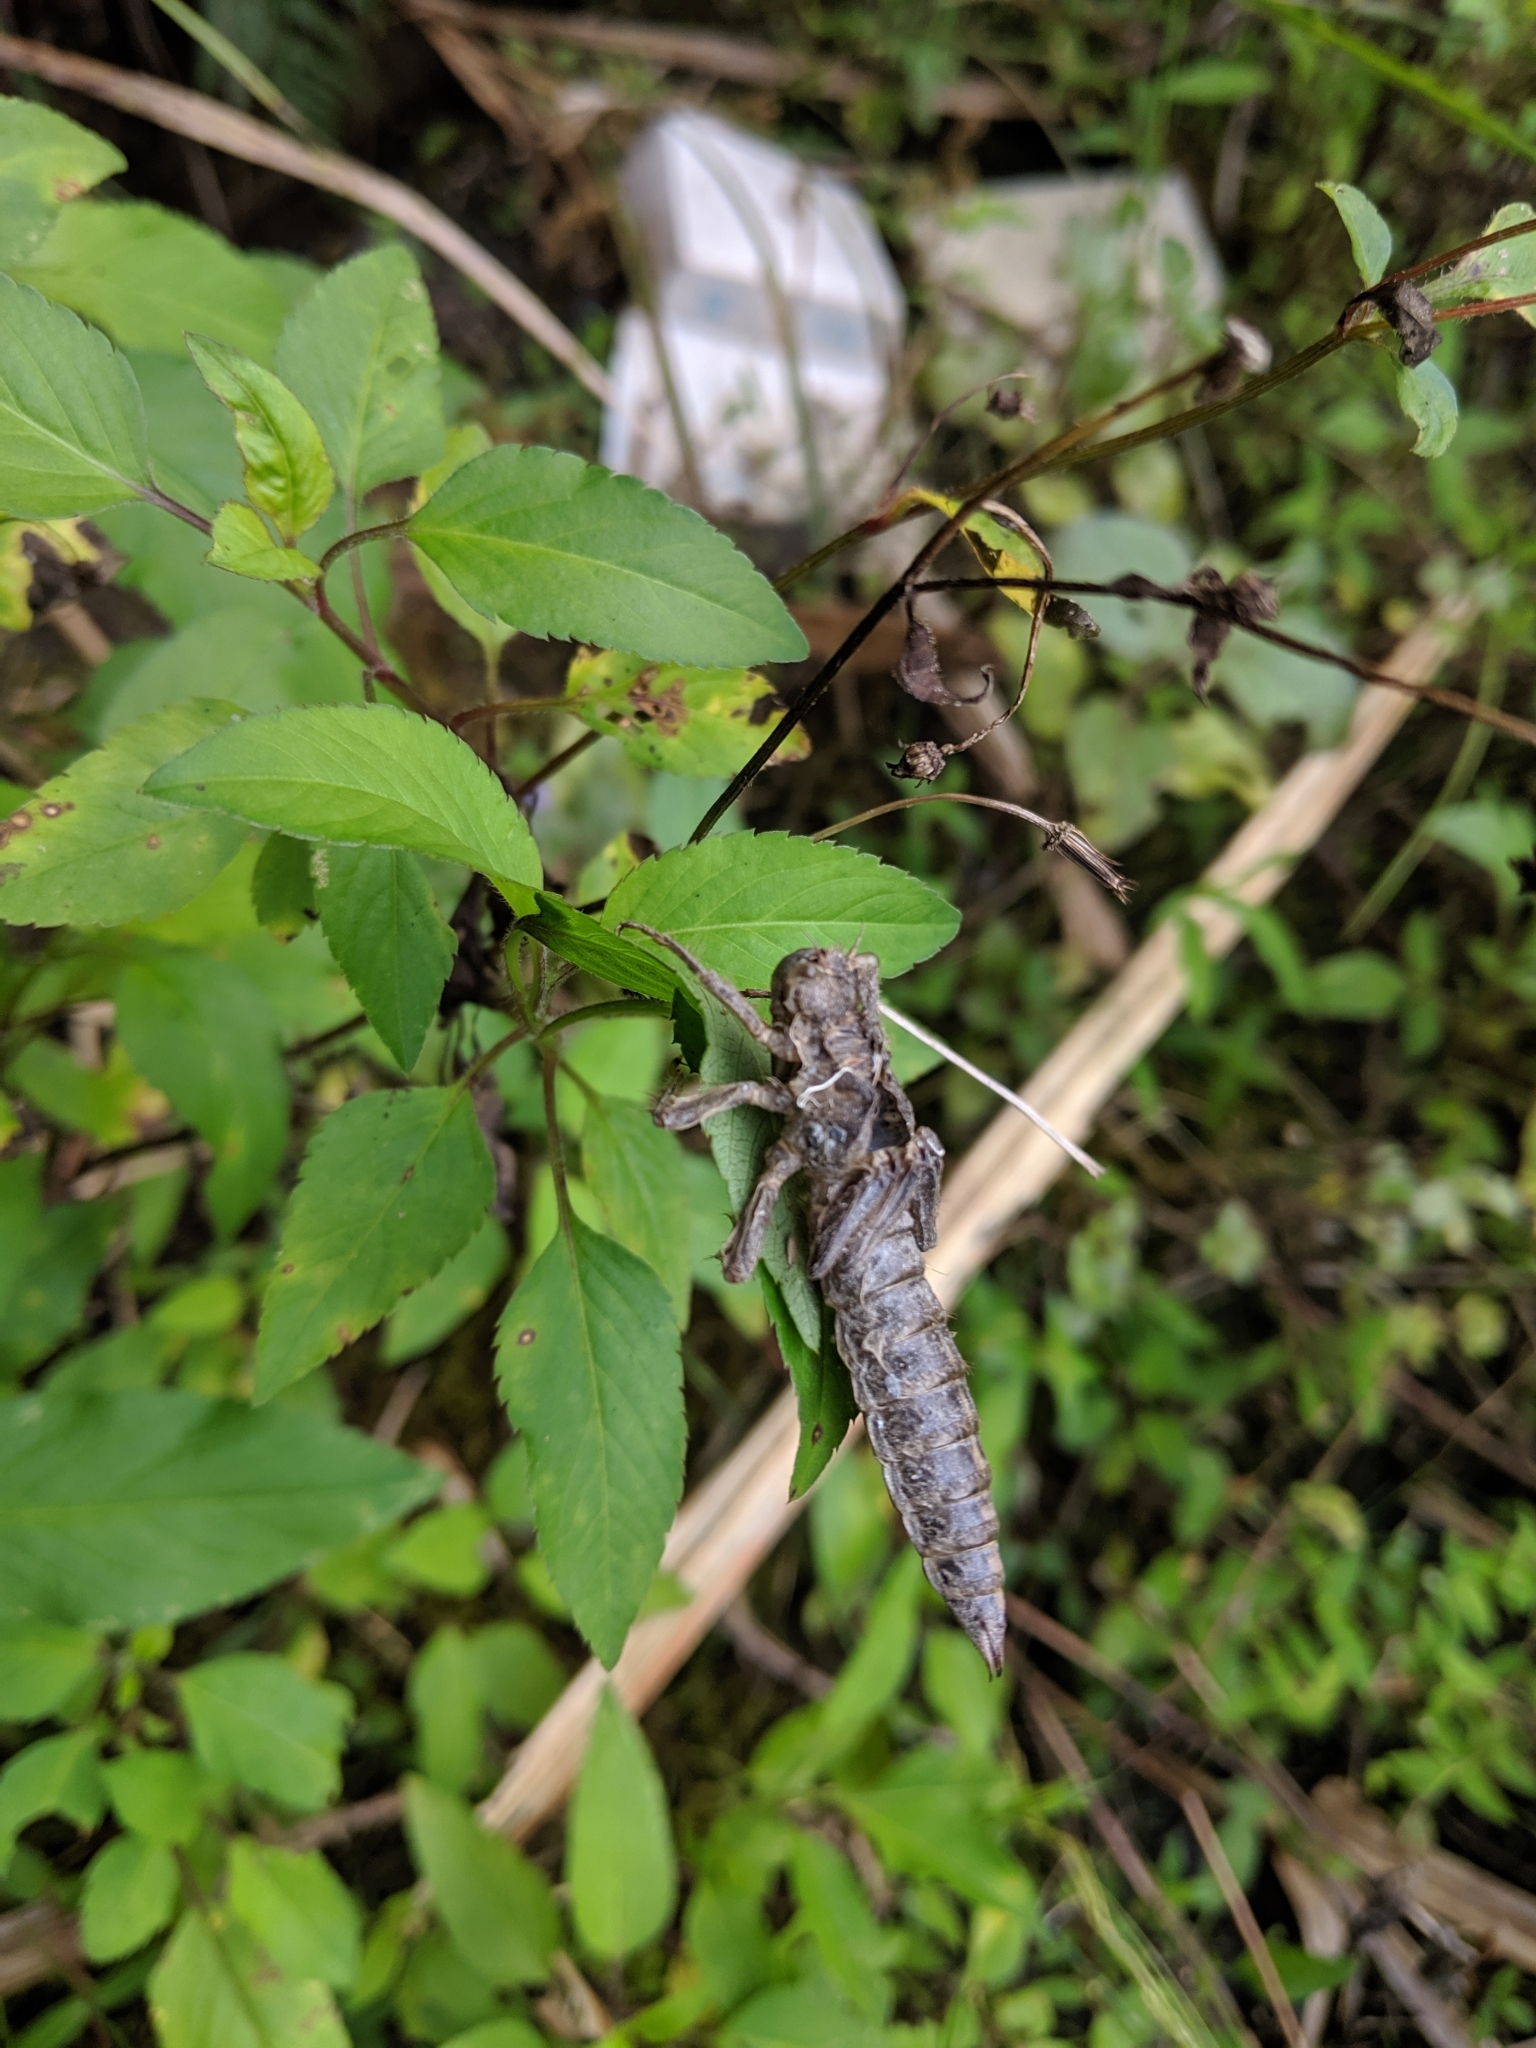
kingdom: Animalia
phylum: Arthropoda
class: Insecta
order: Odonata
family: Cordulegastridae
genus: Anotogaster
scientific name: Anotogaster klossi
